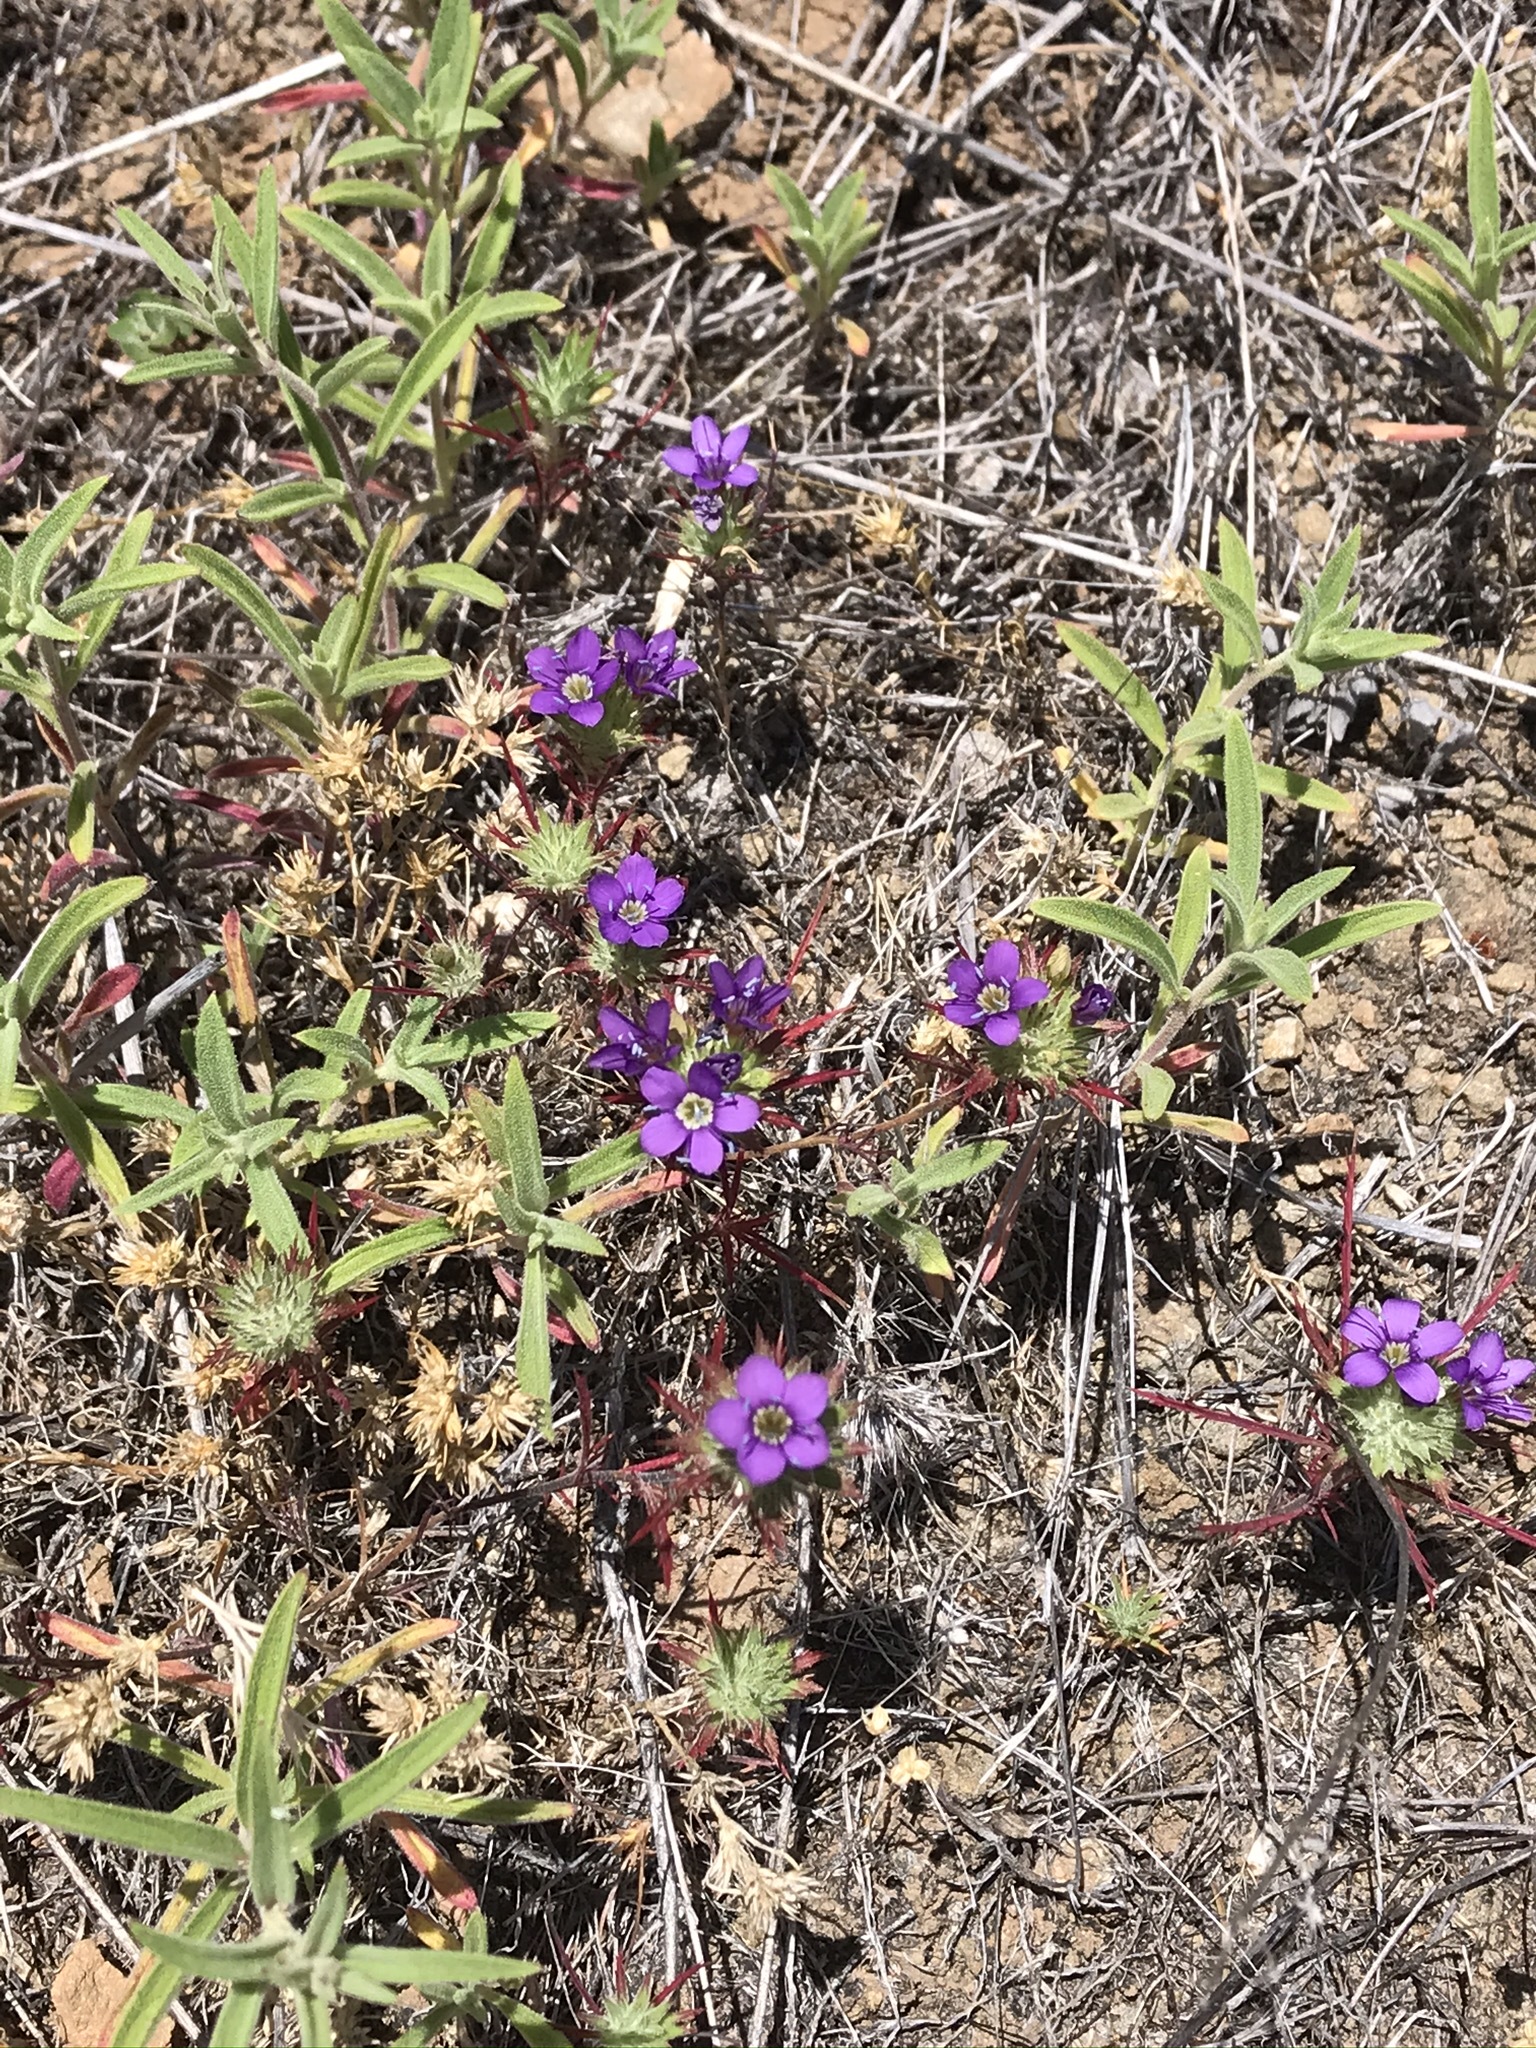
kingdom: Plantae
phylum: Tracheophyta
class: Magnoliopsida
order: Ericales
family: Polemoniaceae
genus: Navarretia
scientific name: Navarretia viscidula
